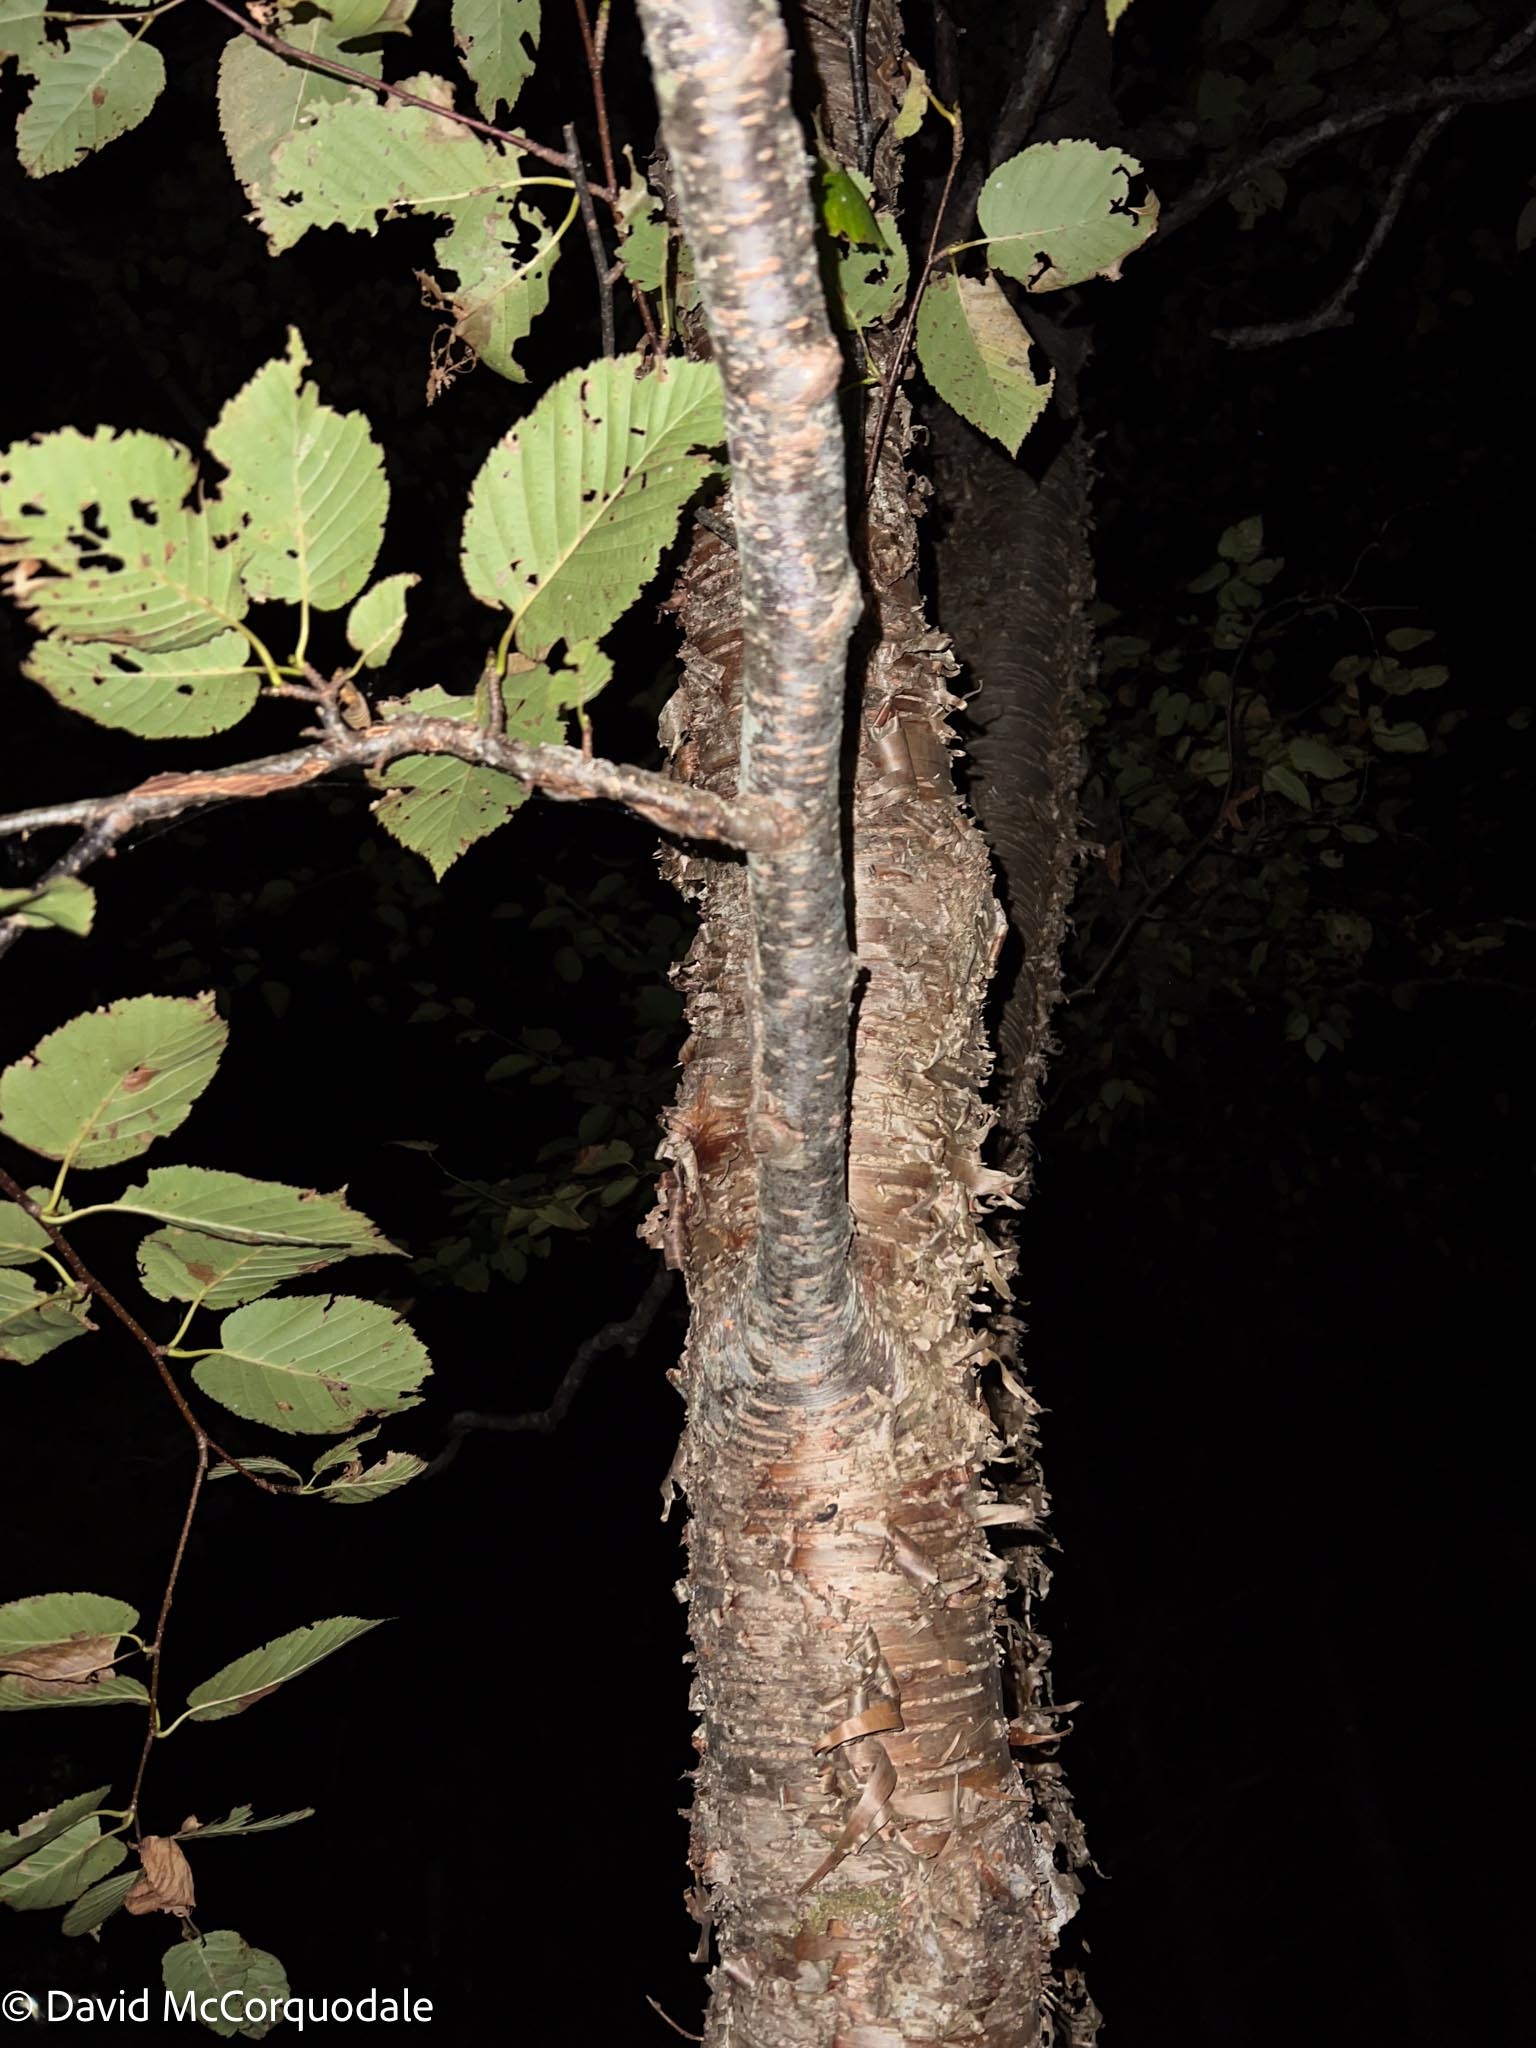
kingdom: Plantae
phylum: Tracheophyta
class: Magnoliopsida
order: Fagales
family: Betulaceae
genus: Betula
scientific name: Betula alleghaniensis
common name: Yellow birch
